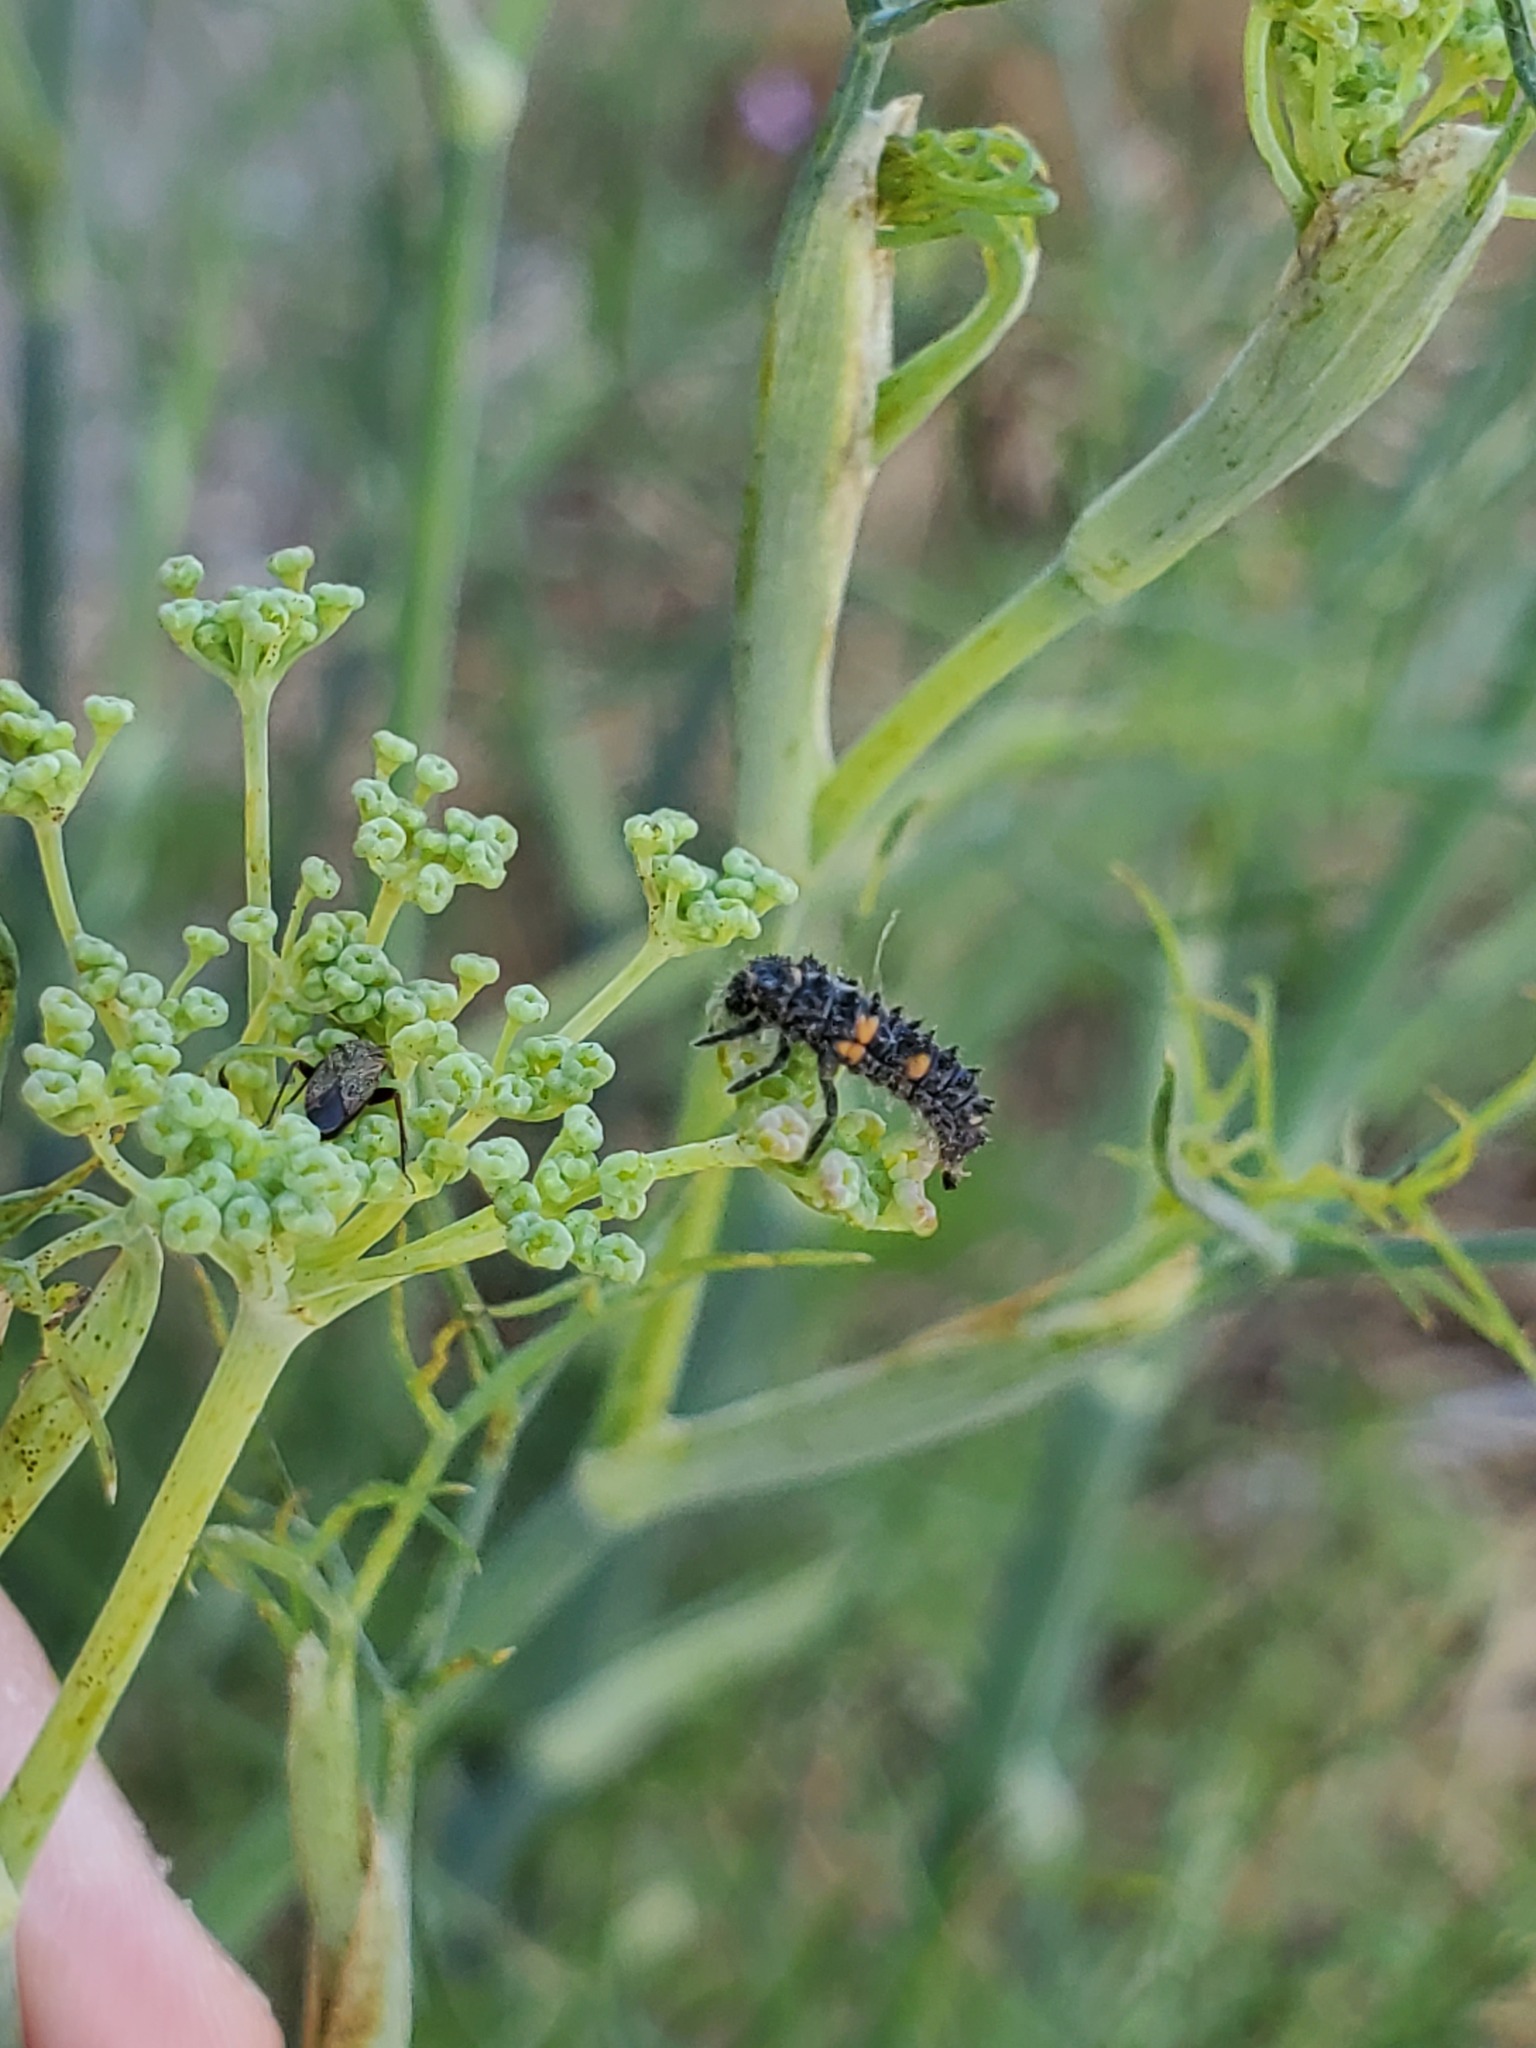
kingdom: Plantae
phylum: Tracheophyta
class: Magnoliopsida
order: Apiales
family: Apiaceae
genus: Foeniculum
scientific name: Foeniculum vulgare
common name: Fennel
